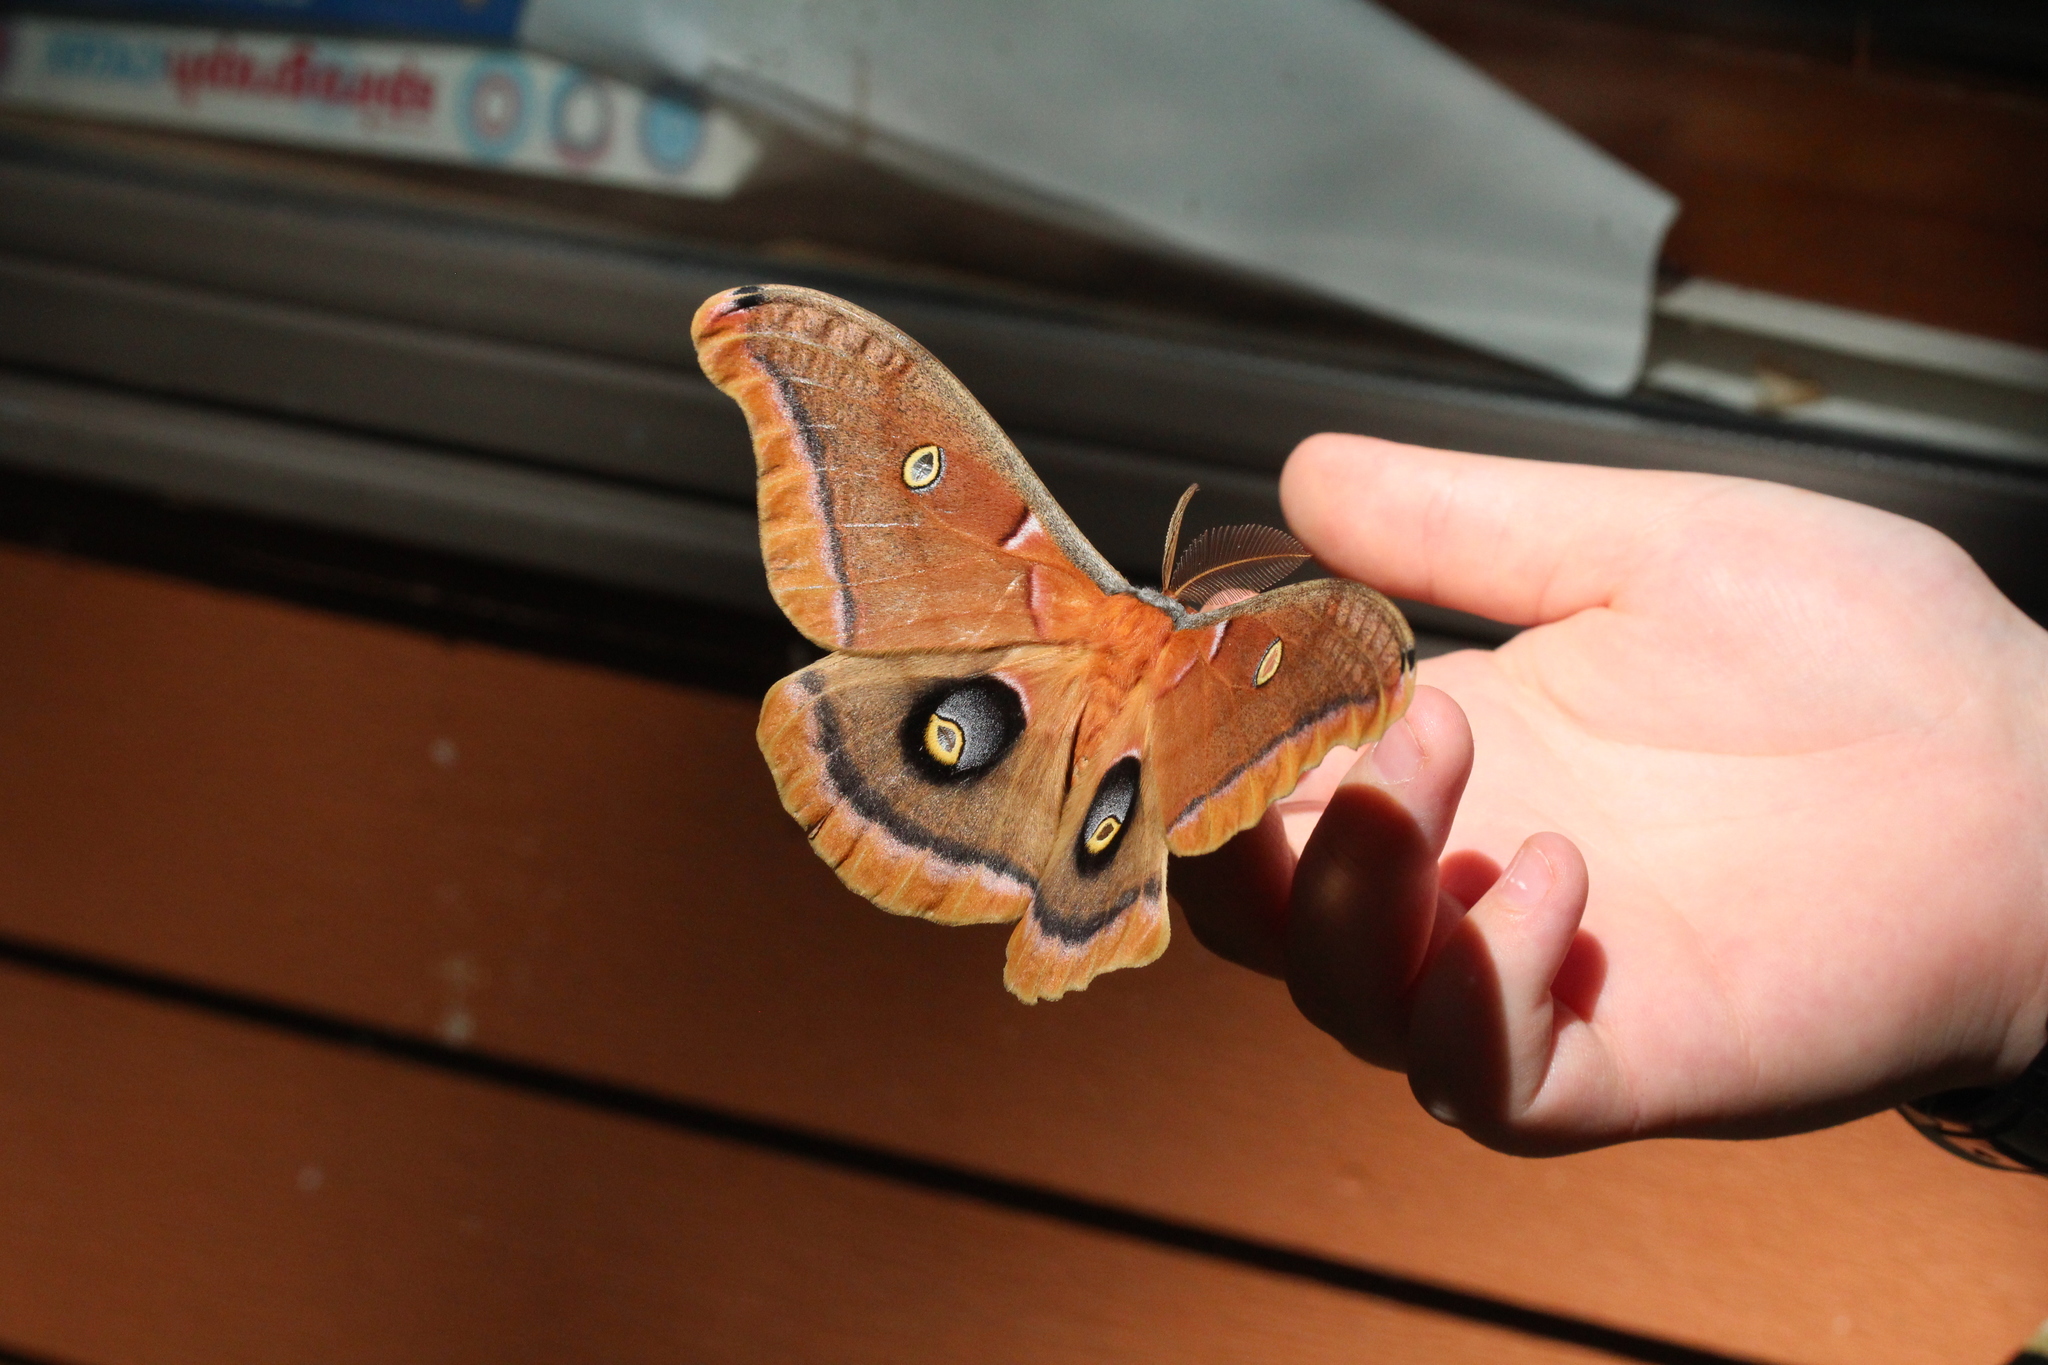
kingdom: Animalia
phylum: Arthropoda
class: Insecta
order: Lepidoptera
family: Saturniidae
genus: Antheraea
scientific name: Antheraea polyphemus
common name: Polyphemus moth
